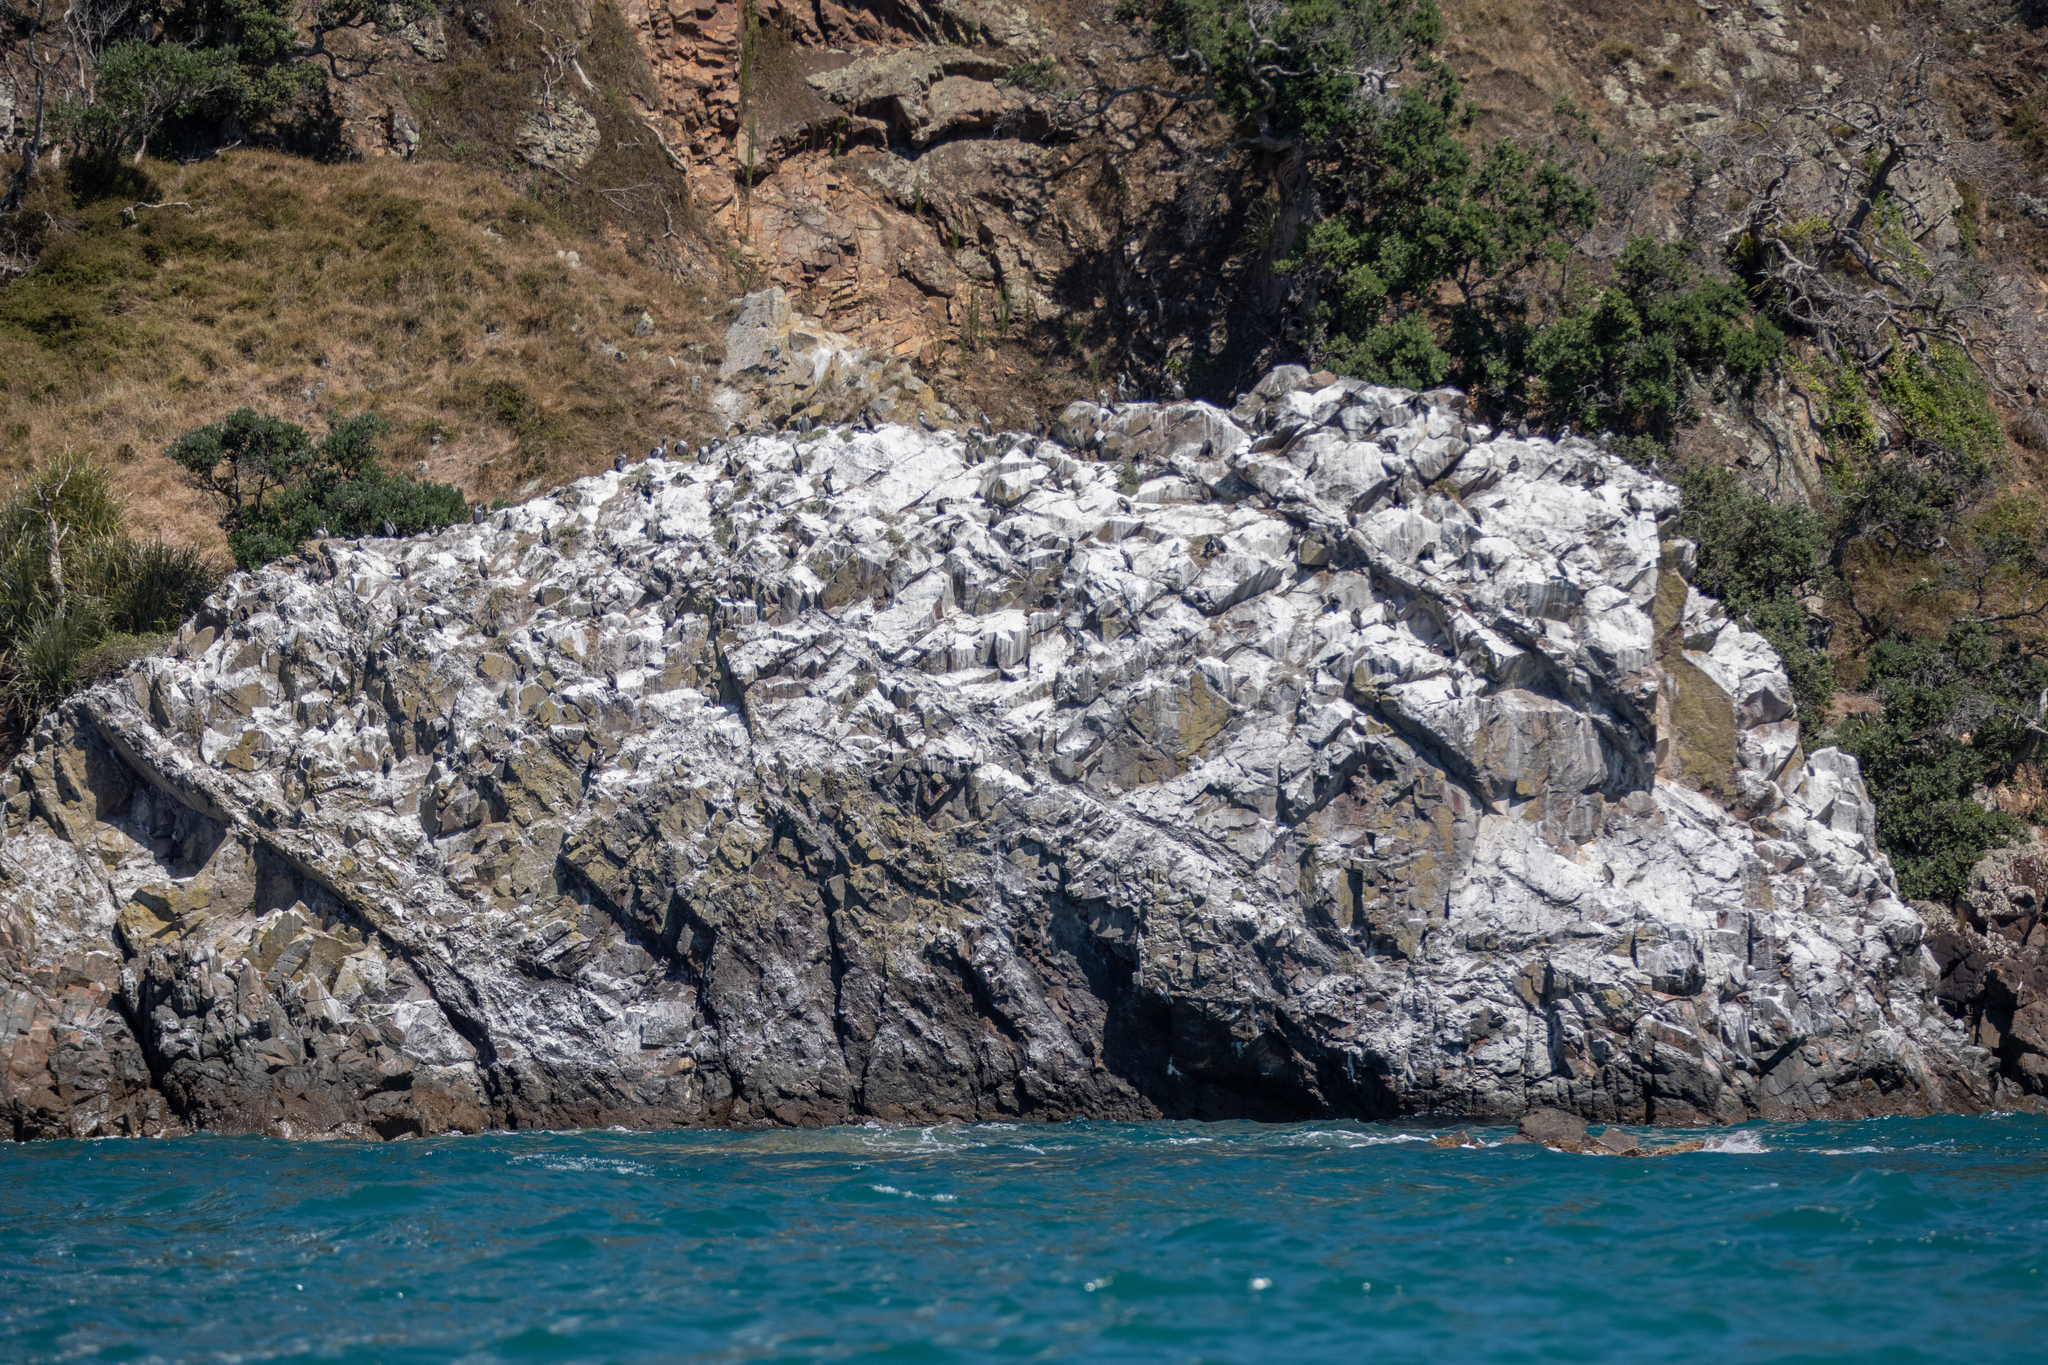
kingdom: Animalia
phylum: Chordata
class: Aves
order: Suliformes
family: Phalacrocoracidae
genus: Phalacrocorax
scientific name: Phalacrocorax punctatus
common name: Spotted shag
